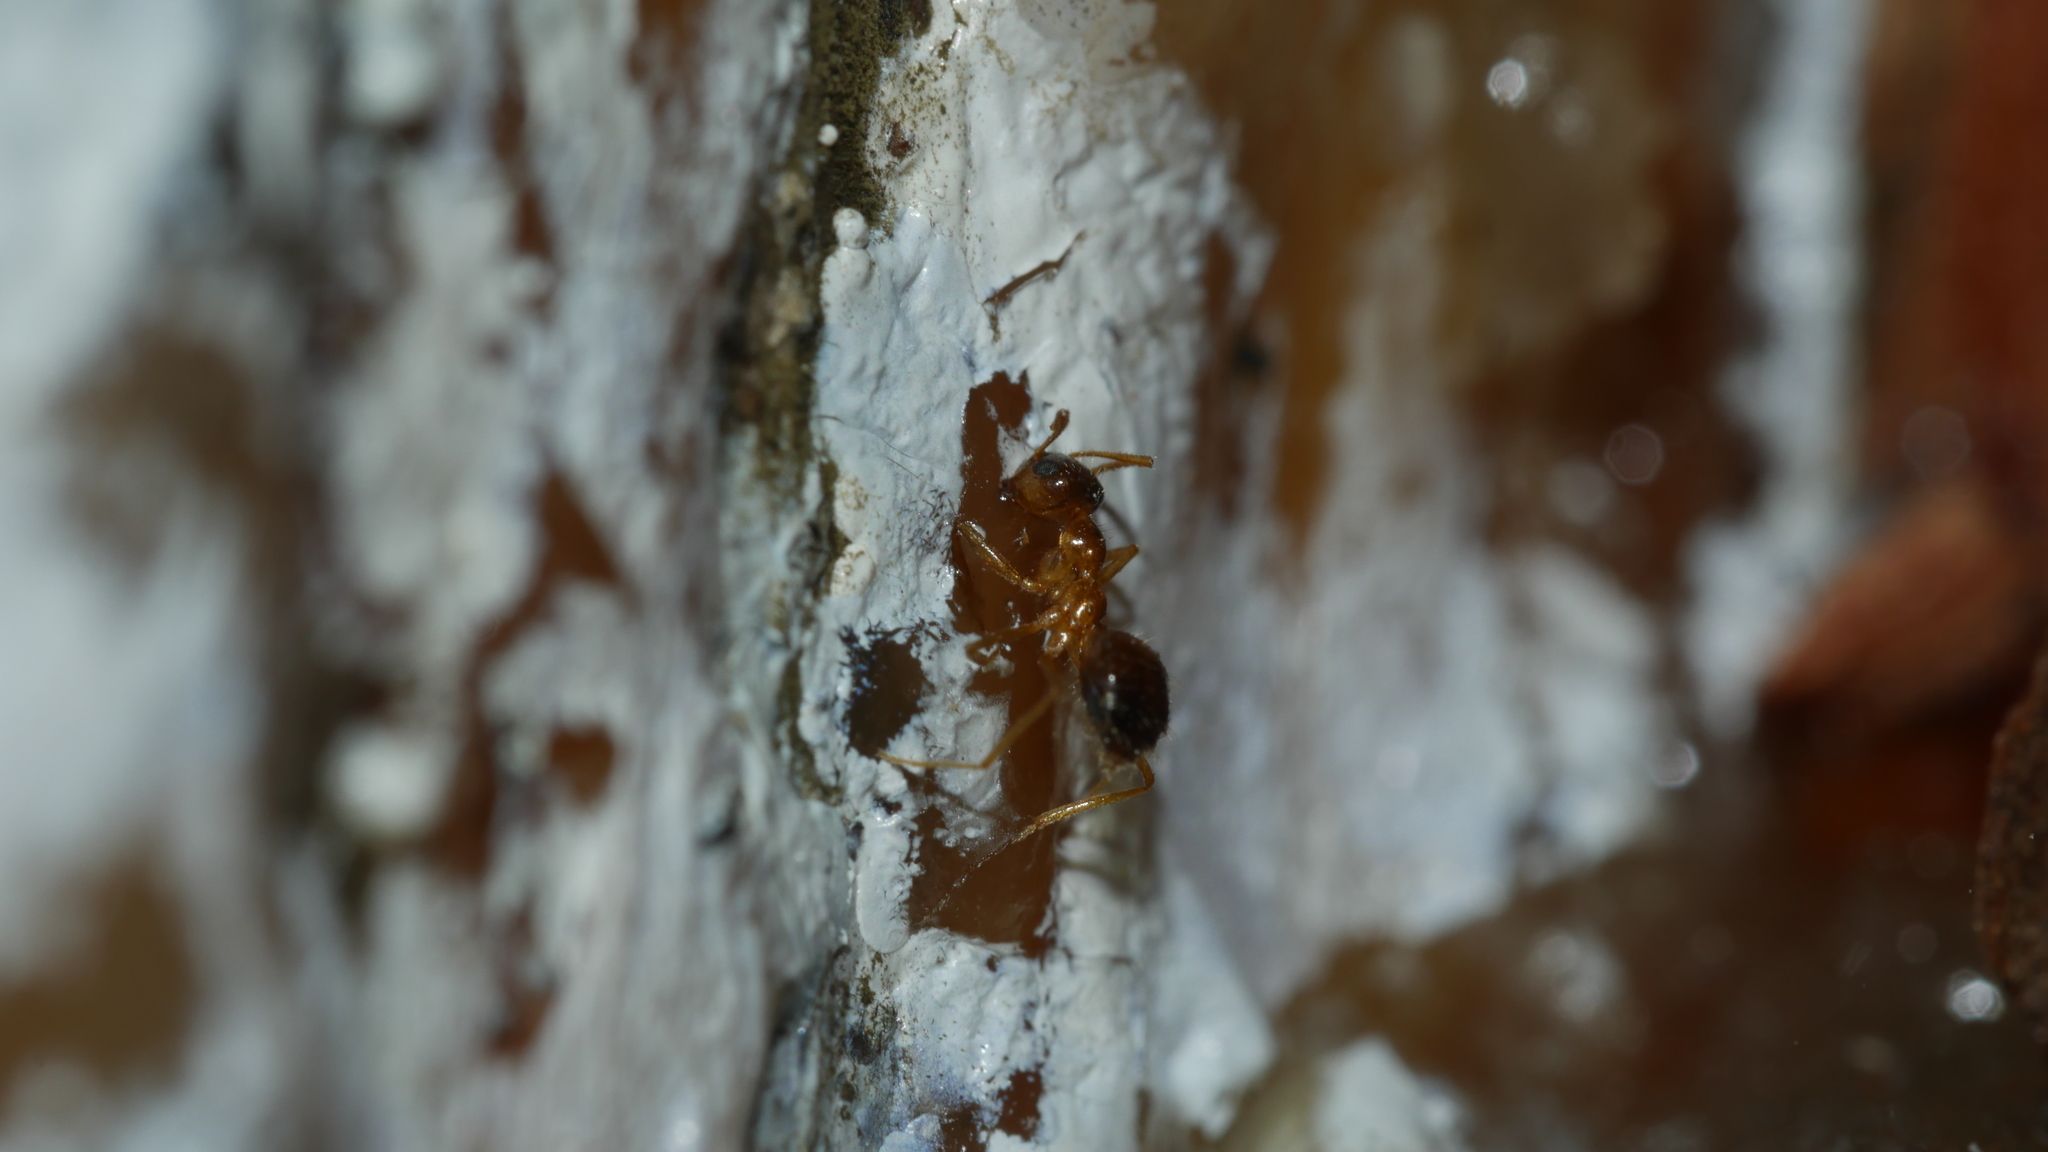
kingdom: Animalia
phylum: Arthropoda
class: Insecta
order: Hymenoptera
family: Formicidae
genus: Prenolepis
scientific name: Prenolepis imparis
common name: Small honey ant
